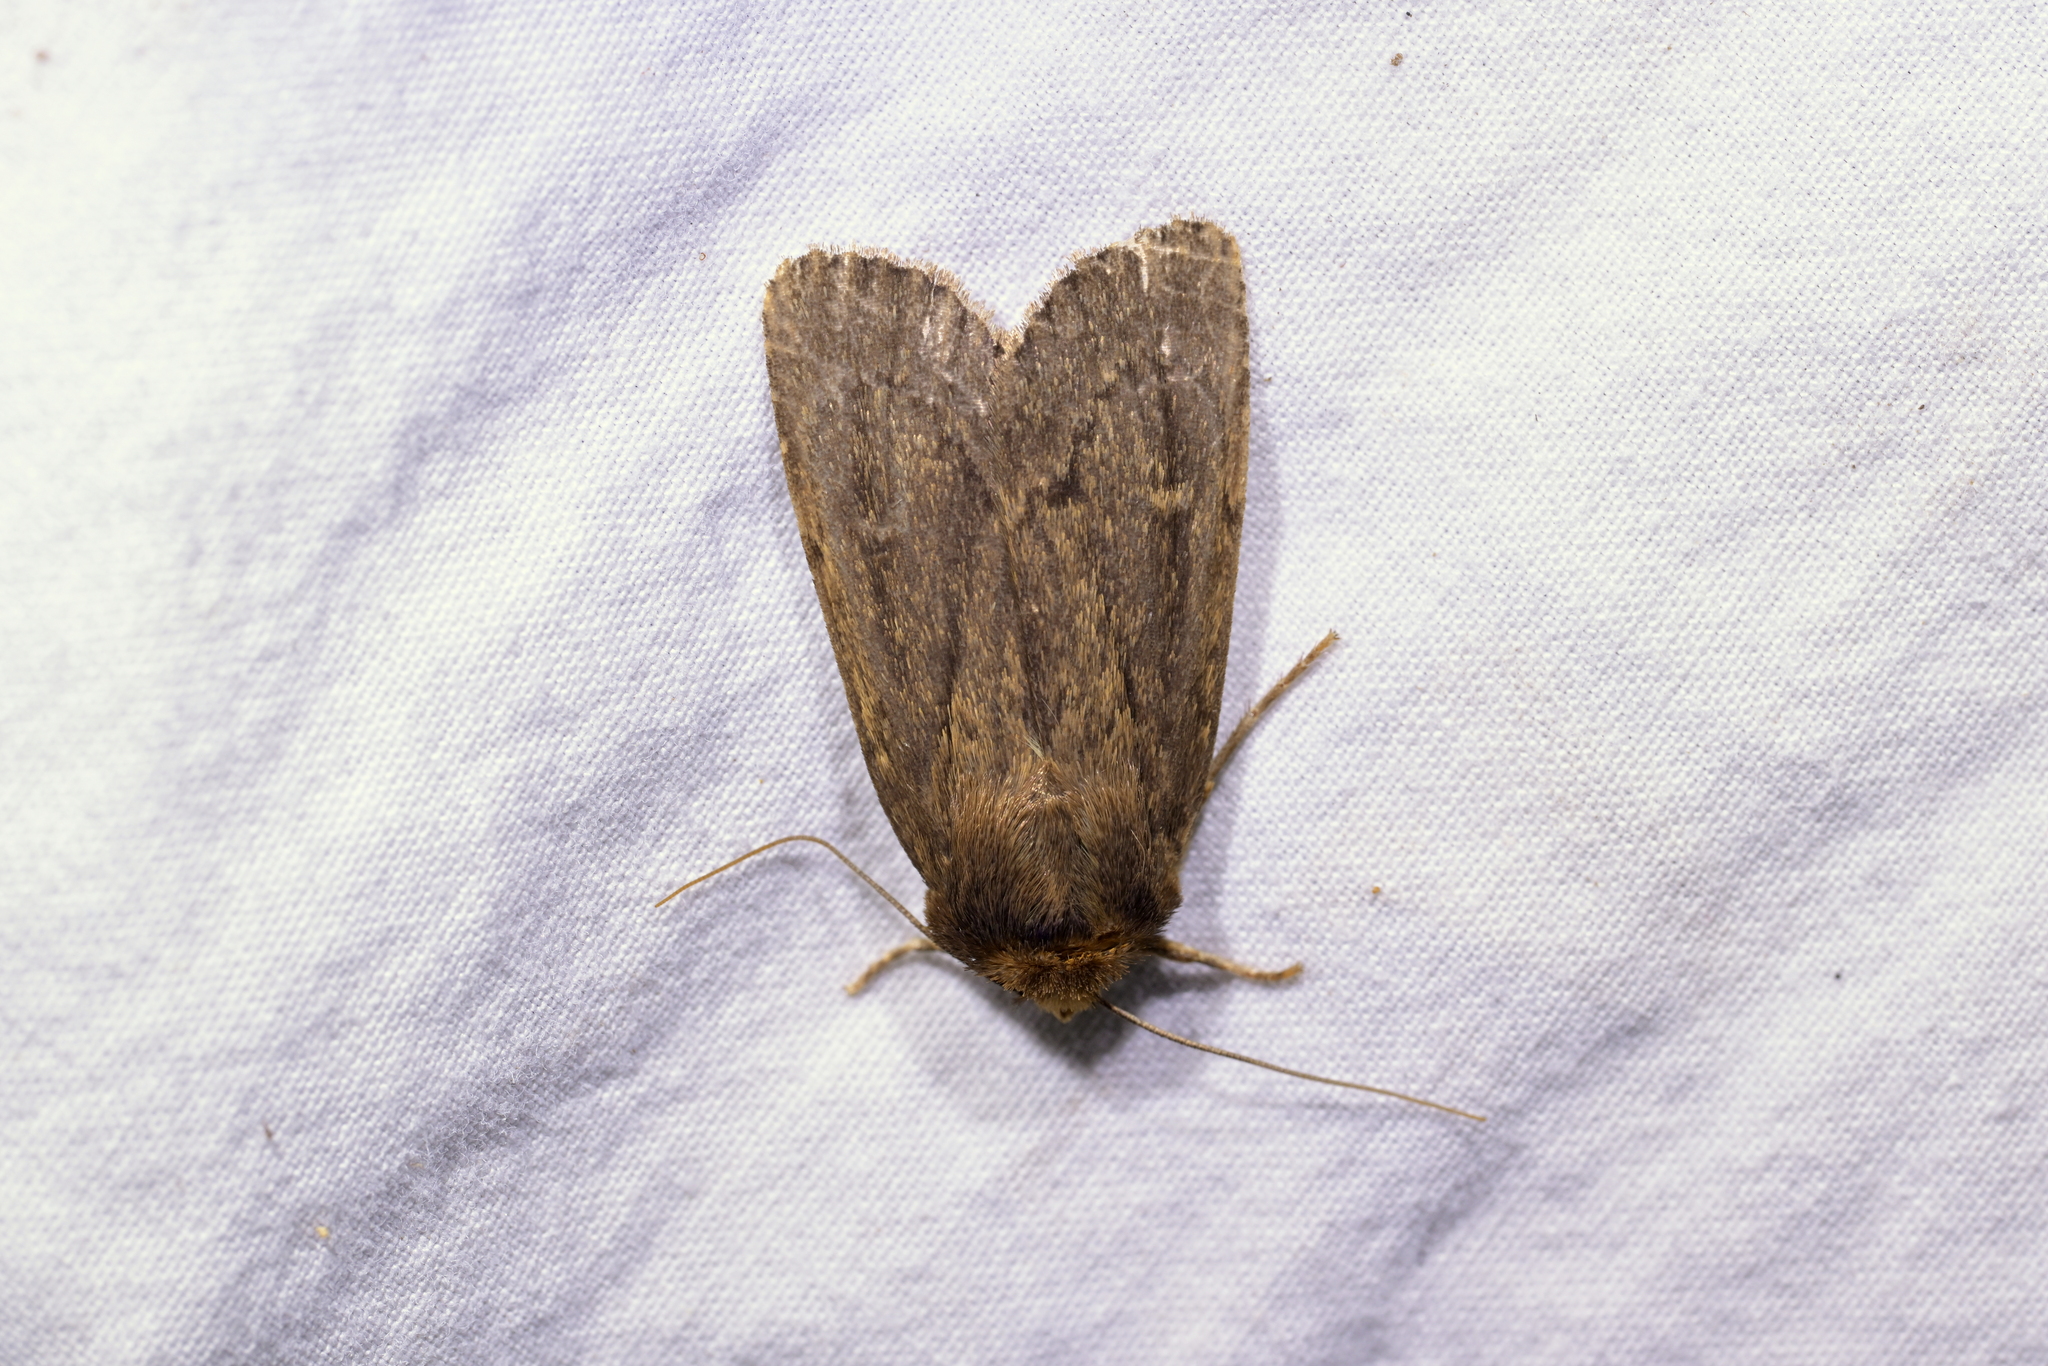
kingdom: Animalia
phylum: Arthropoda
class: Insecta
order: Lepidoptera
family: Noctuidae
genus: Bityla
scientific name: Bityla defigurata
